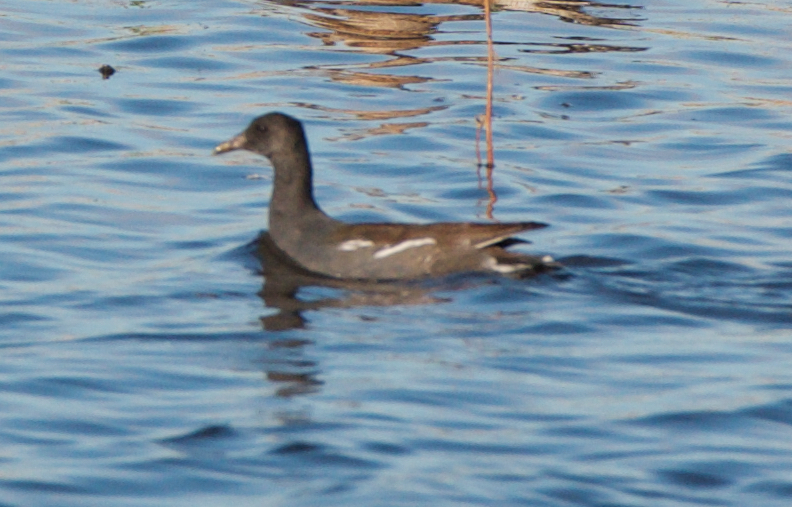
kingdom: Animalia
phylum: Chordata
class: Aves
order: Gruiformes
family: Rallidae
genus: Gallinula
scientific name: Gallinula chloropus
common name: Common moorhen
